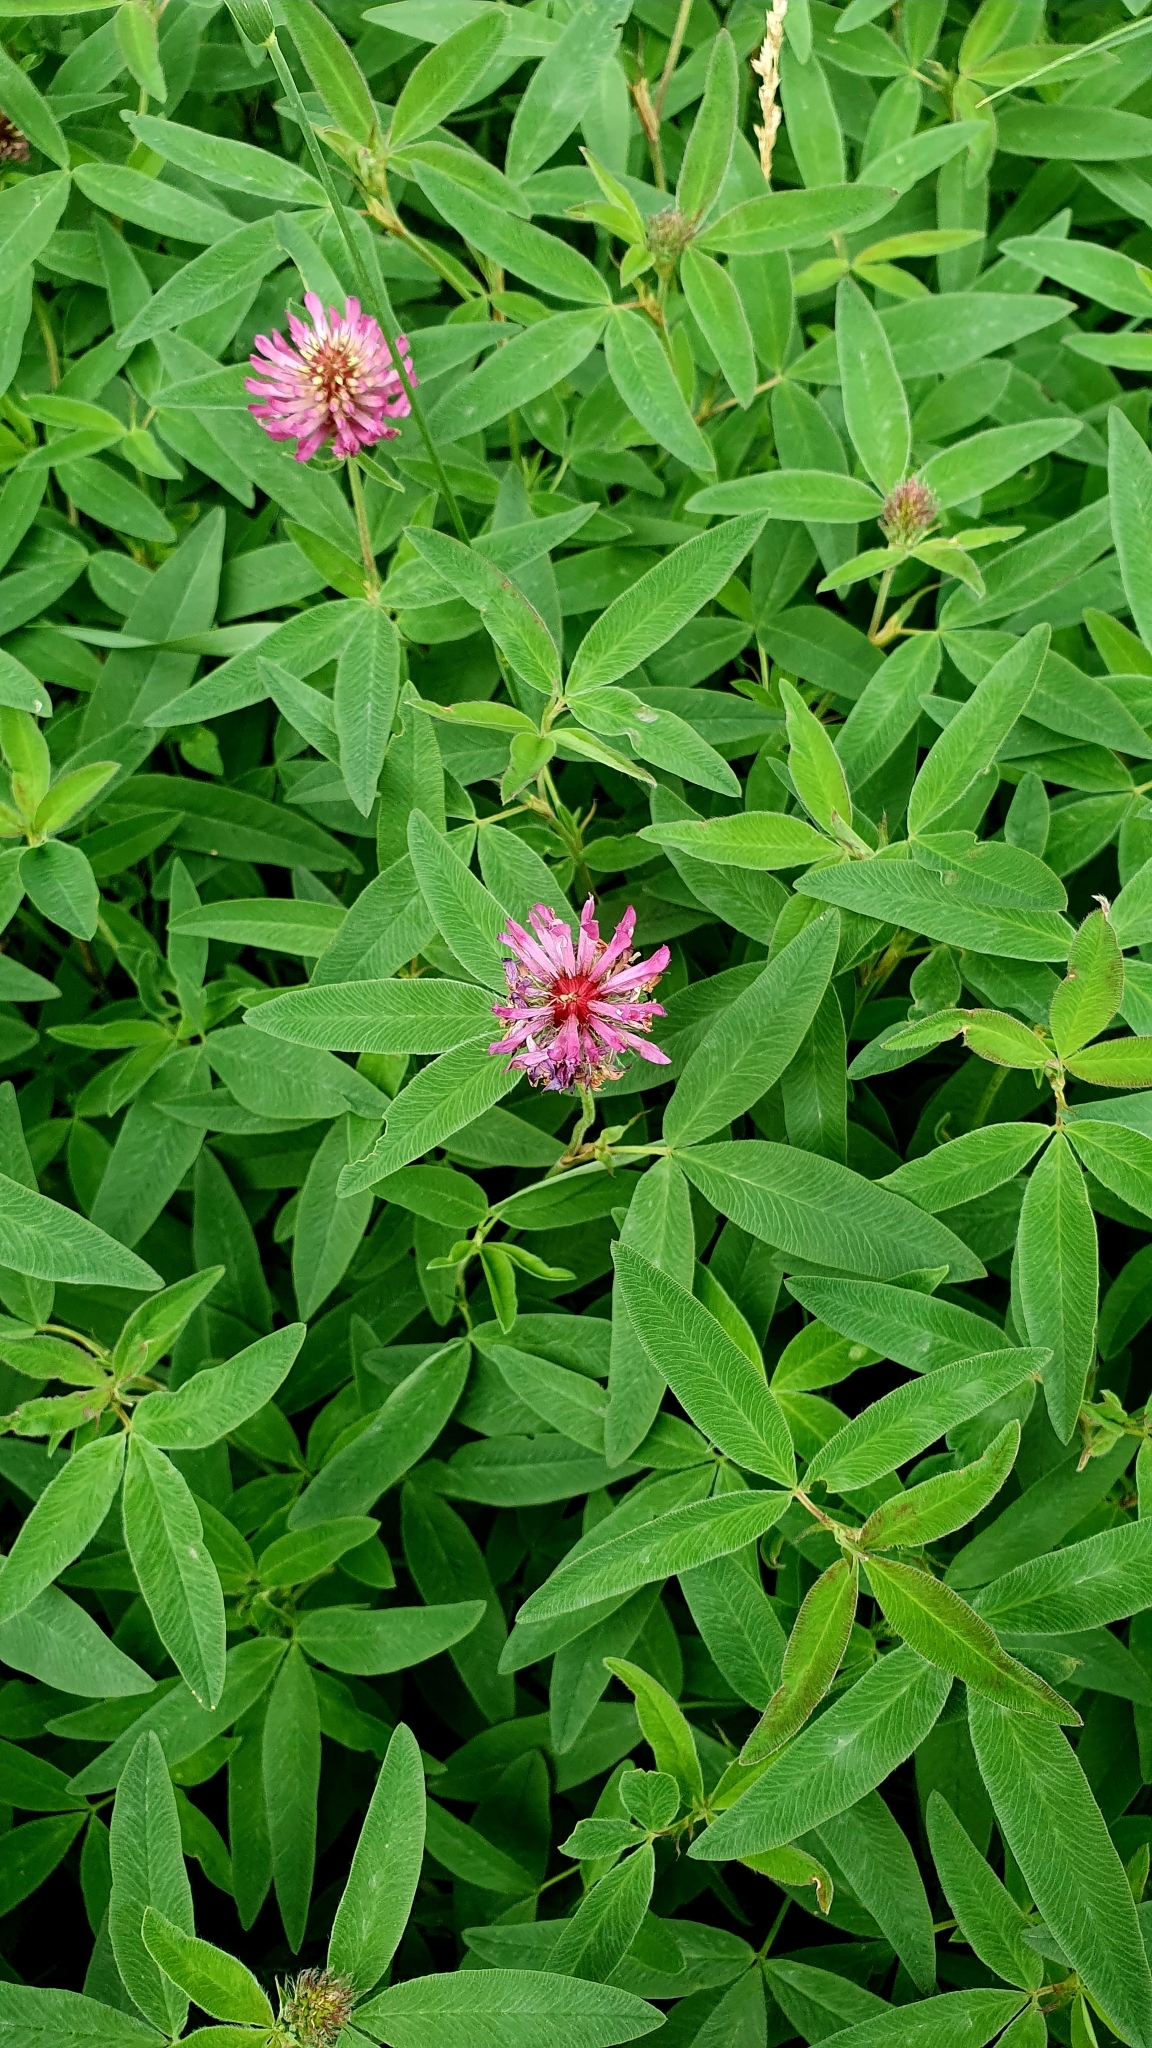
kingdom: Plantae
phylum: Tracheophyta
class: Magnoliopsida
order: Fabales
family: Fabaceae
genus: Trifolium
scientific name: Trifolium medium
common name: Zigzag clover
